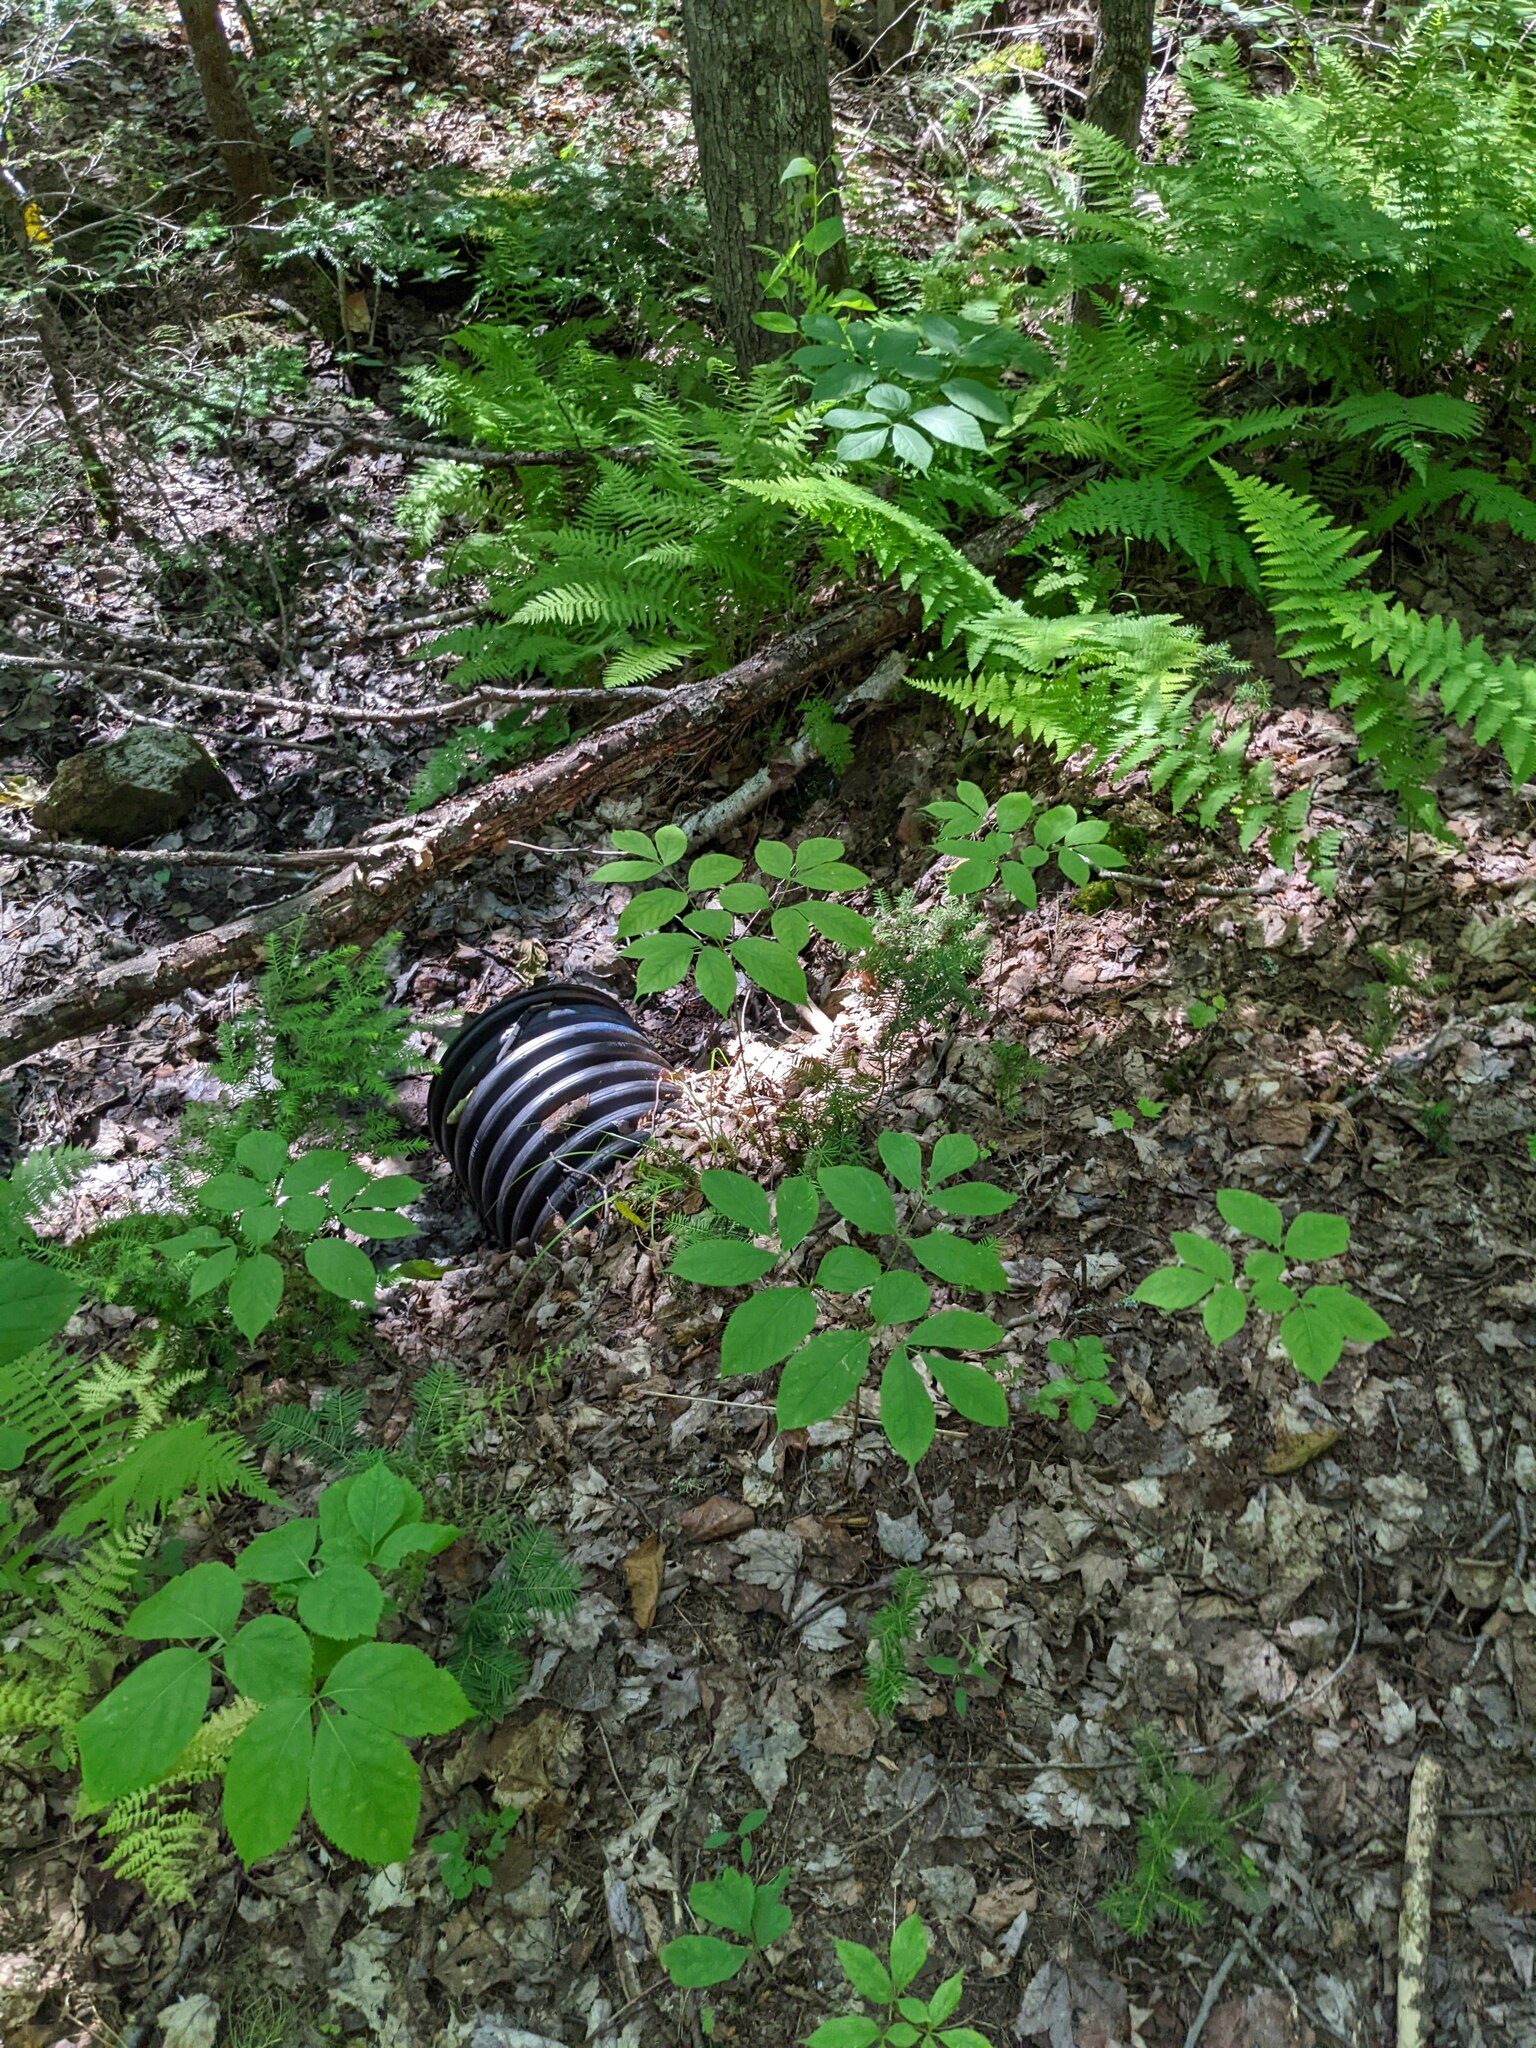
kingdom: Plantae
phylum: Tracheophyta
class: Magnoliopsida
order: Apiales
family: Araliaceae
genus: Aralia
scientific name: Aralia nudicaulis
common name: Wild sarsaparilla
